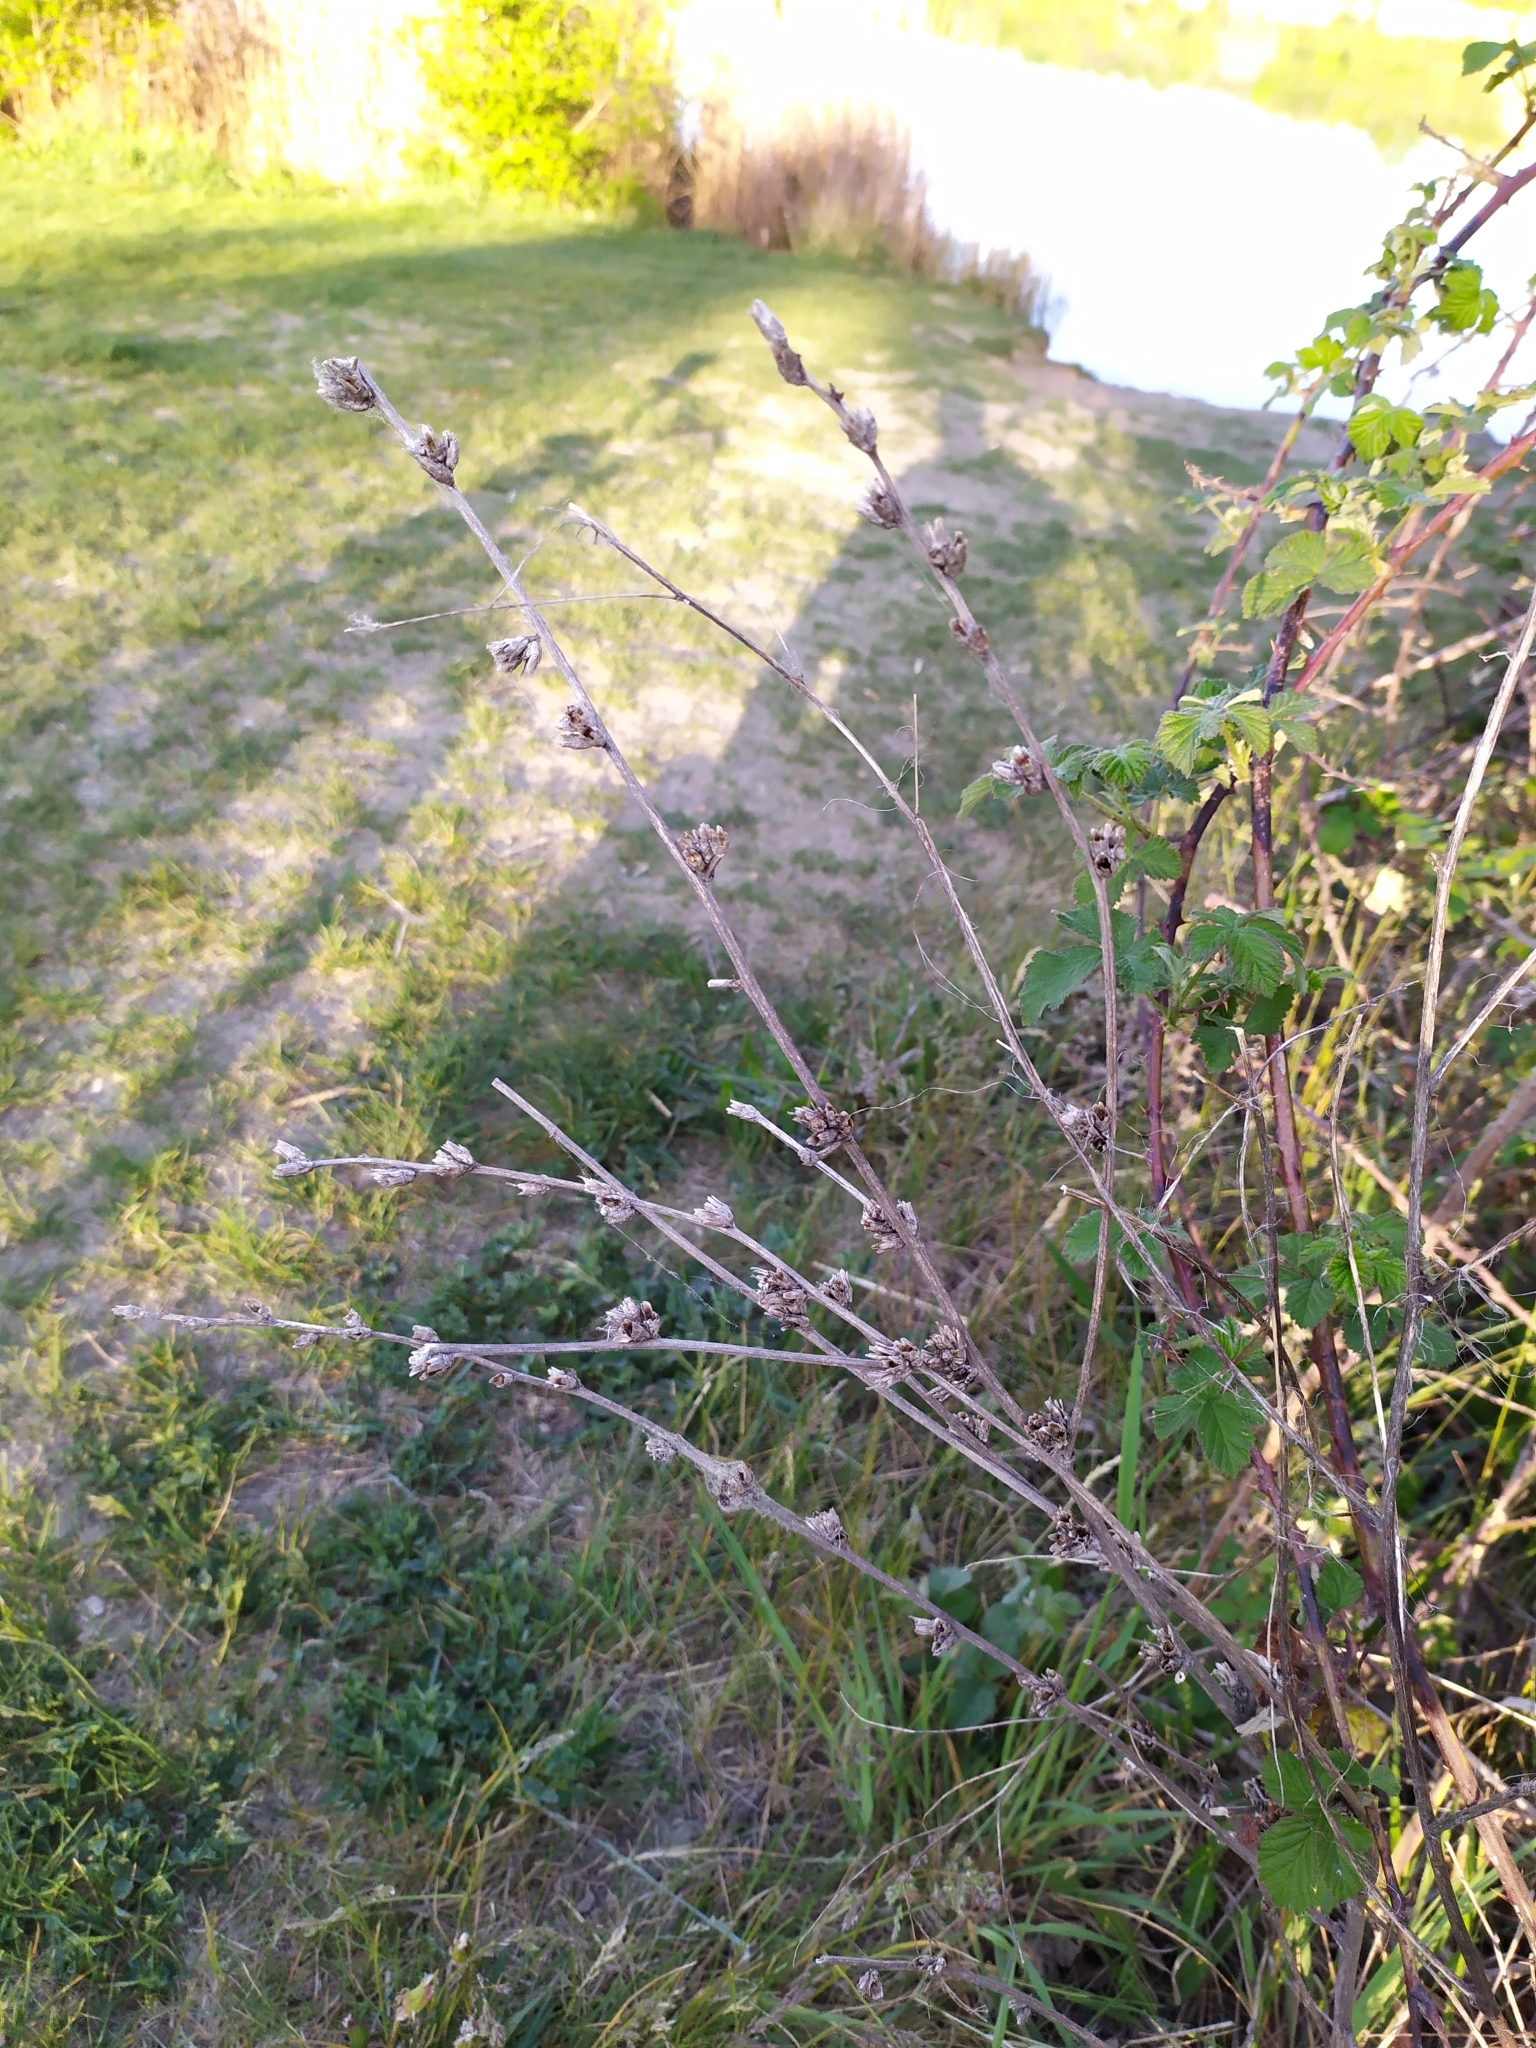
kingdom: Plantae
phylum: Tracheophyta
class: Magnoliopsida
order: Asterales
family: Asteraceae
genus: Cichorium
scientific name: Cichorium intybus
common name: Chicory
